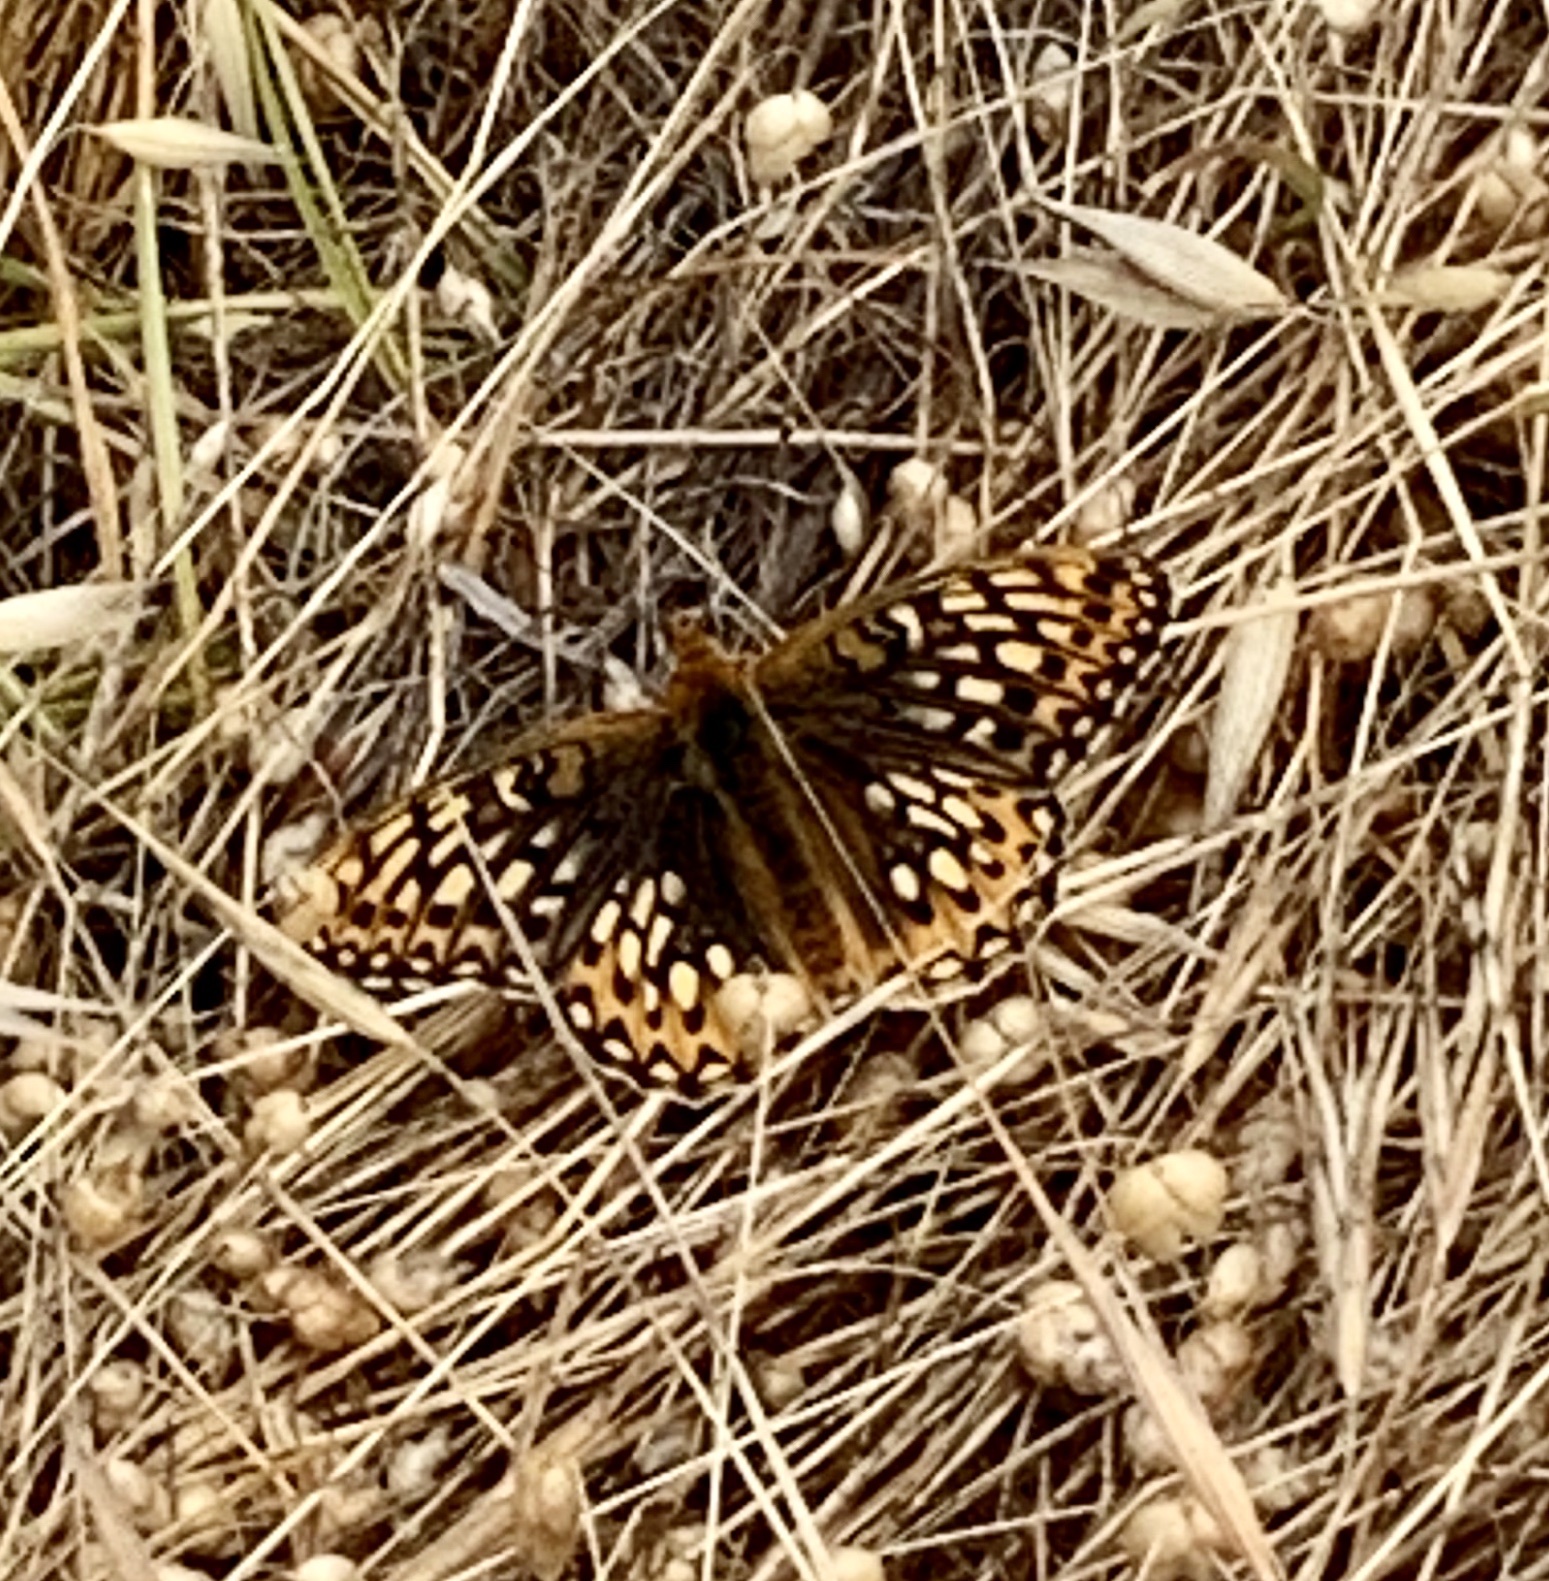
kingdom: Animalia
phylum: Arthropoda
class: Insecta
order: Lepidoptera
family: Nymphalidae
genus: Speyeria
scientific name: Speyeria callippe
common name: Callippe fritillary
